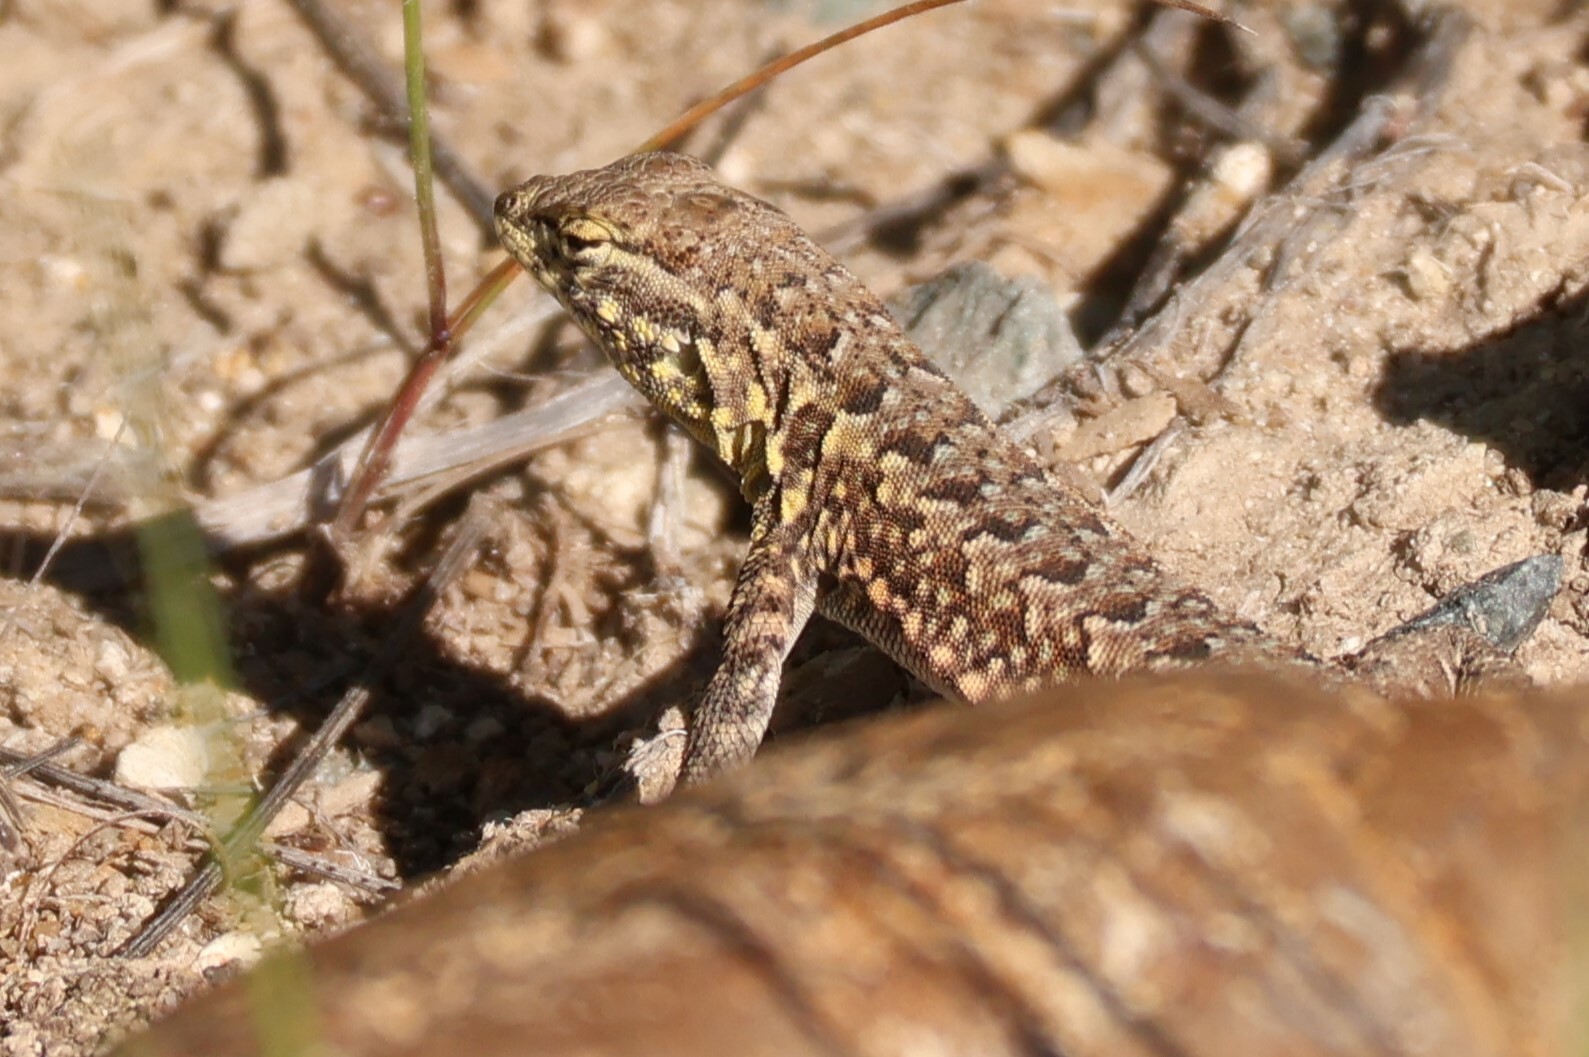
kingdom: Animalia
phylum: Chordata
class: Squamata
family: Phrynosomatidae
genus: Uta
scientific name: Uta stansburiana
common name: Side-blotched lizard
